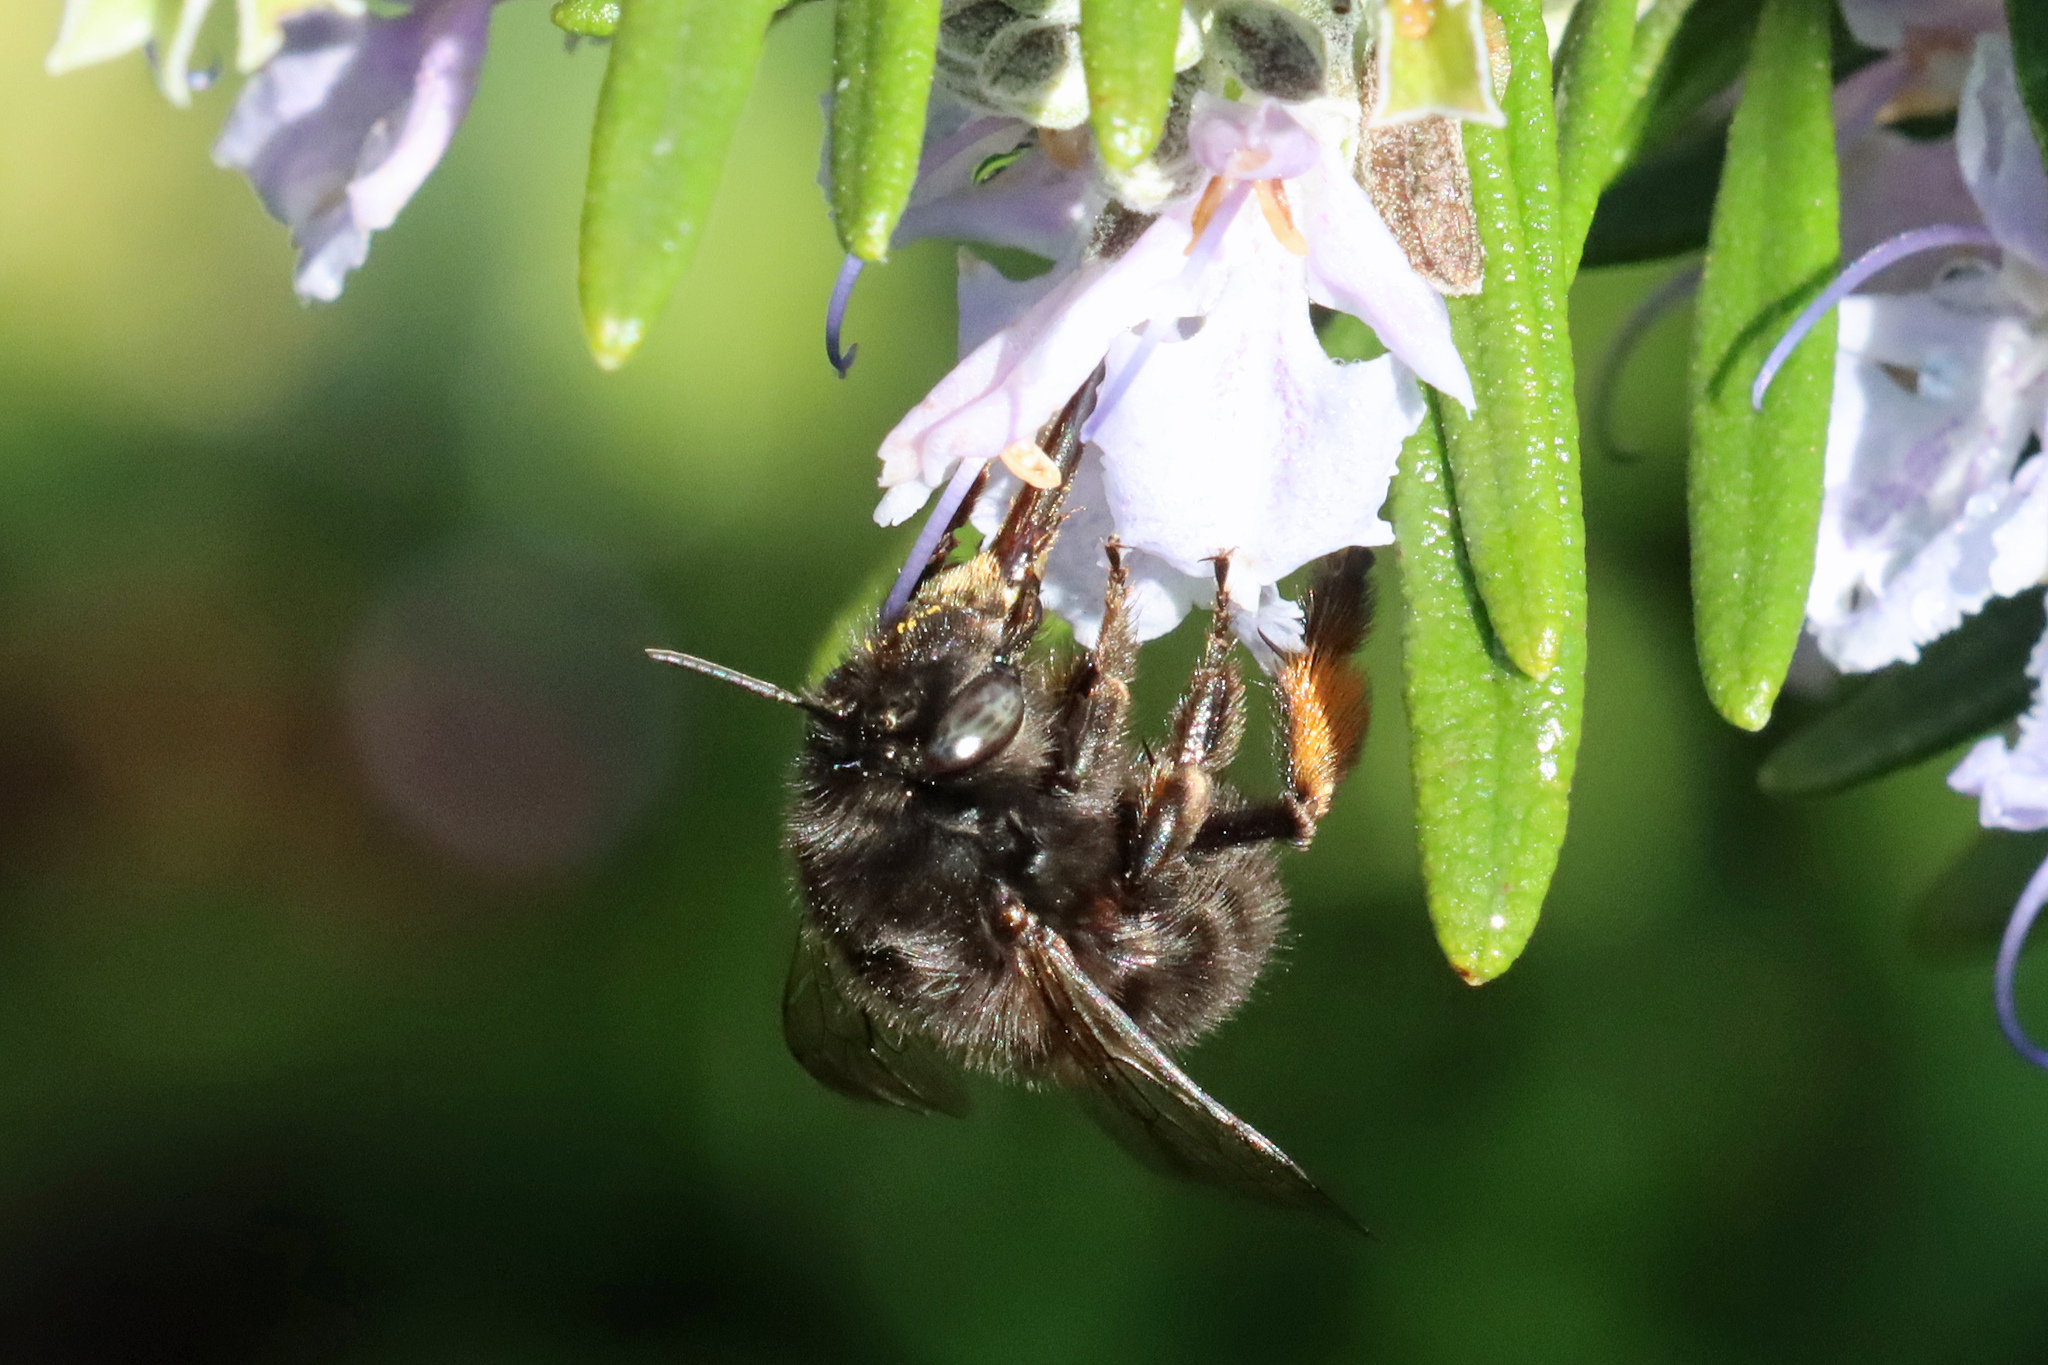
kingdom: Animalia
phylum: Arthropoda
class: Insecta
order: Hymenoptera
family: Apidae
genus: Anthophora
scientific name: Anthophora plumipes
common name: Hairy-footed flower bee
